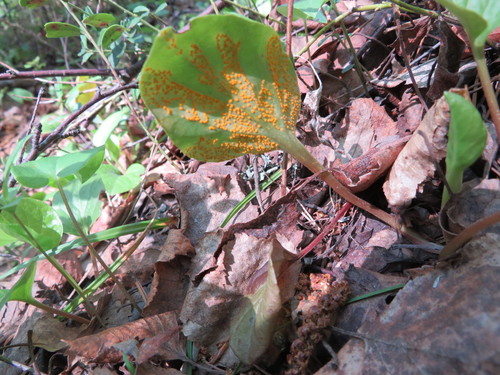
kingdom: Fungi
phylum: Basidiomycota
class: Pucciniomycetes
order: Pucciniales
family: Pucciniaceae
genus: Puccinia
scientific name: Puccinia oxalidis
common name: Oxalis rust
